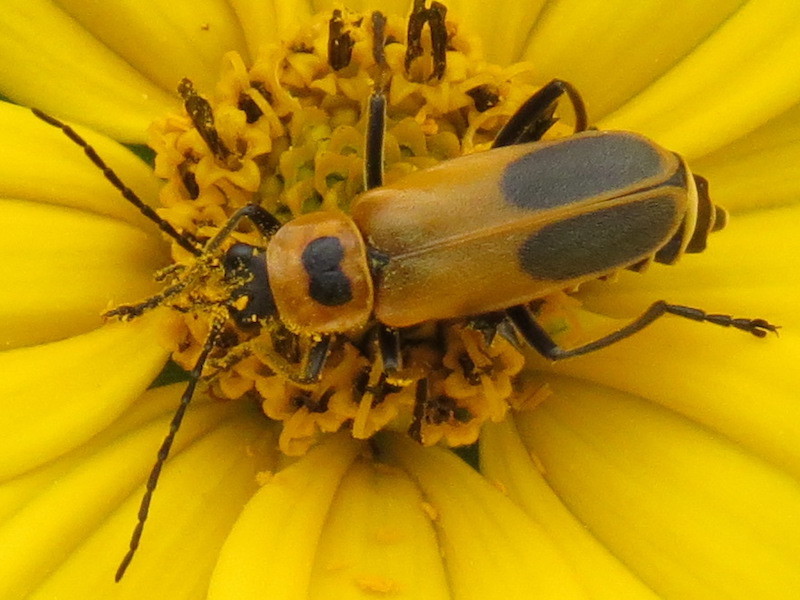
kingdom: Animalia
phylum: Arthropoda
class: Insecta
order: Coleoptera
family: Cantharidae
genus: Chauliognathus
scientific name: Chauliognathus pensylvanicus
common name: Goldenrod soldier beetle
